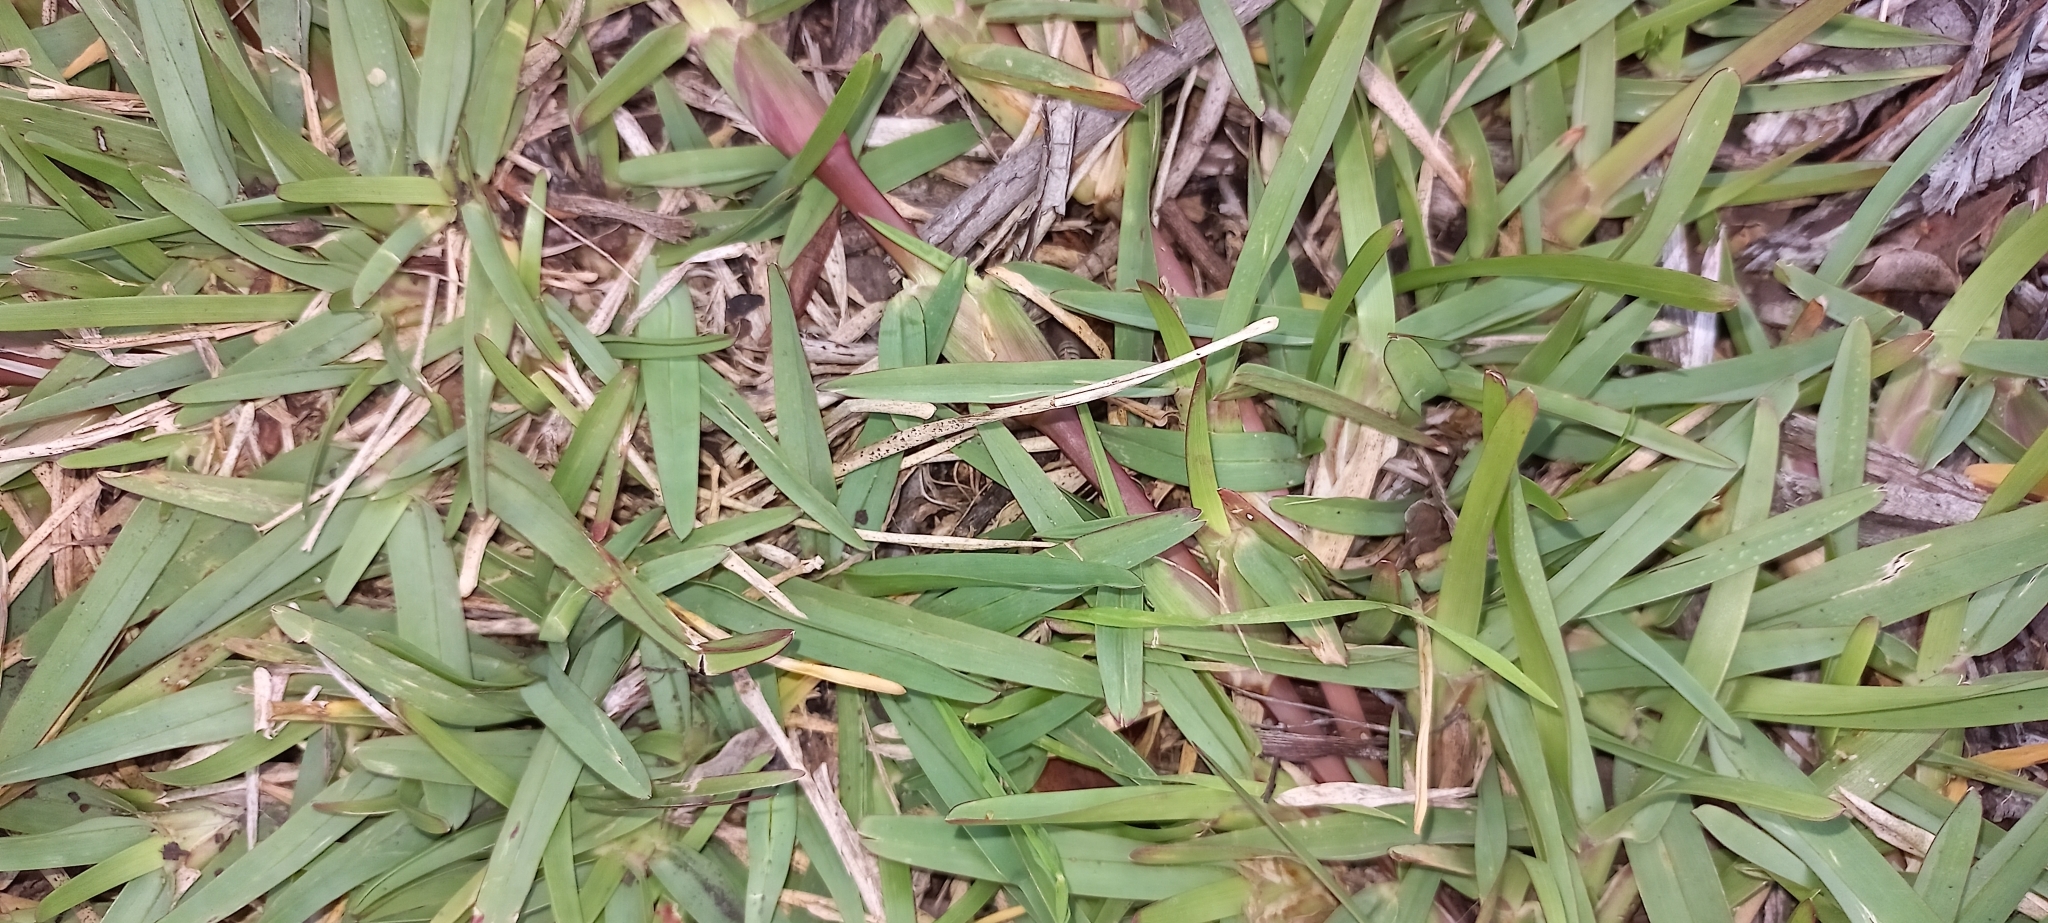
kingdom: Plantae
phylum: Tracheophyta
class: Liliopsida
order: Poales
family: Poaceae
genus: Stenotaphrum
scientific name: Stenotaphrum secundatum
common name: St. augustine grass
